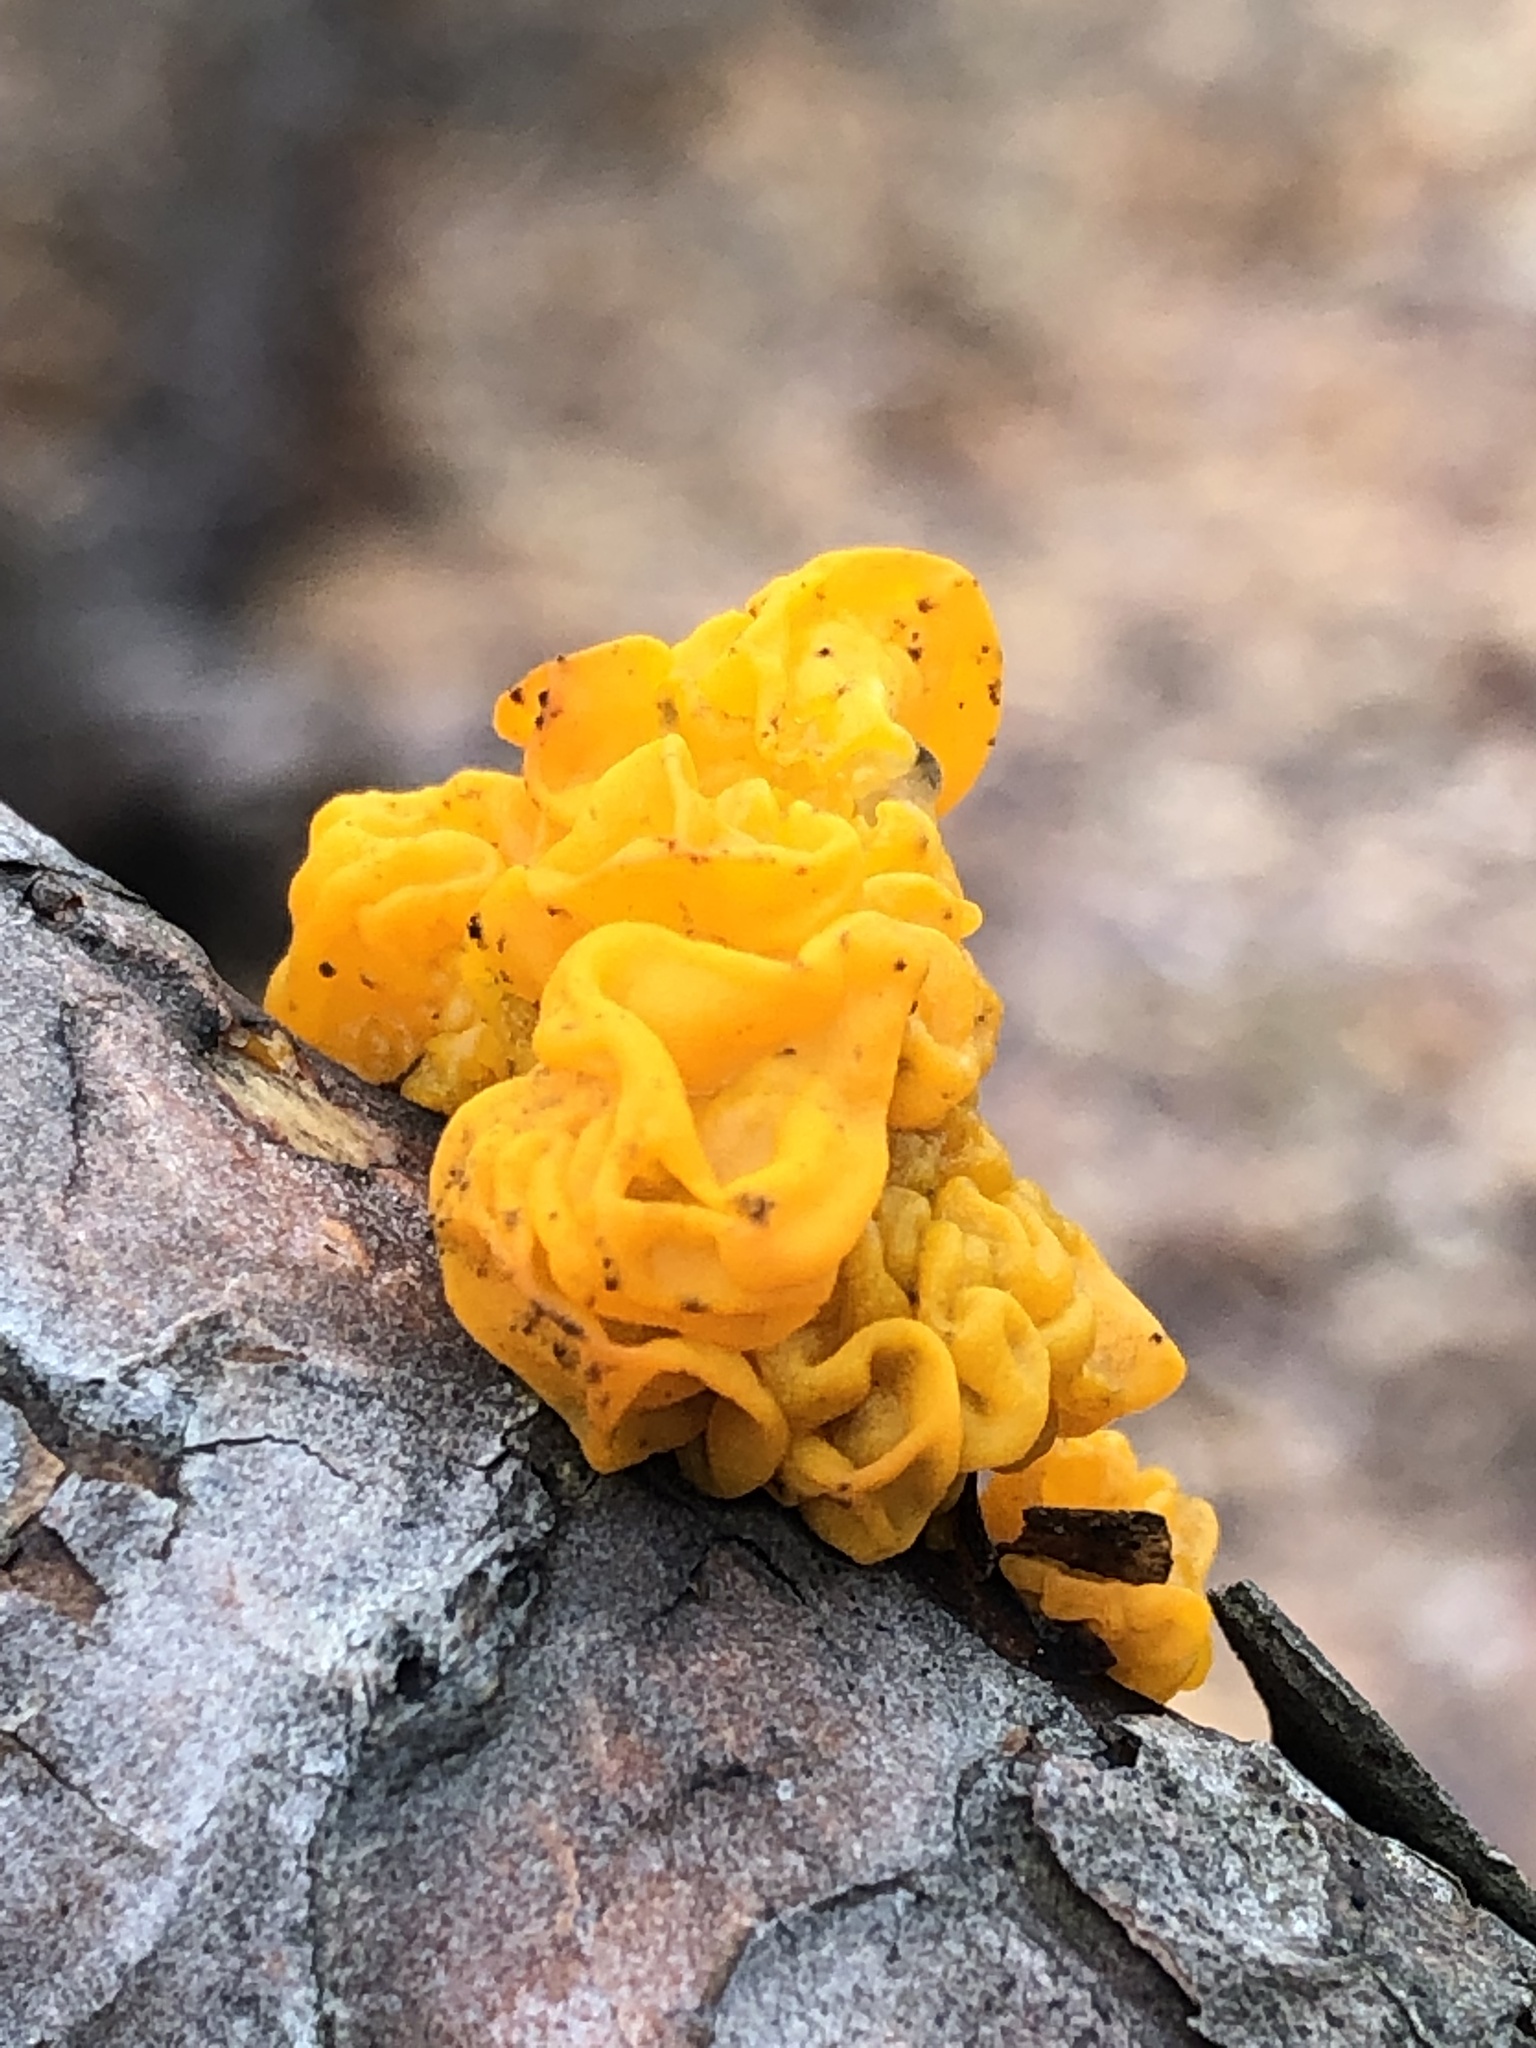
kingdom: Fungi
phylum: Basidiomycota
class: Tremellomycetes
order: Tremellales
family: Tremellaceae
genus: Tremella
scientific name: Tremella mesenterica
